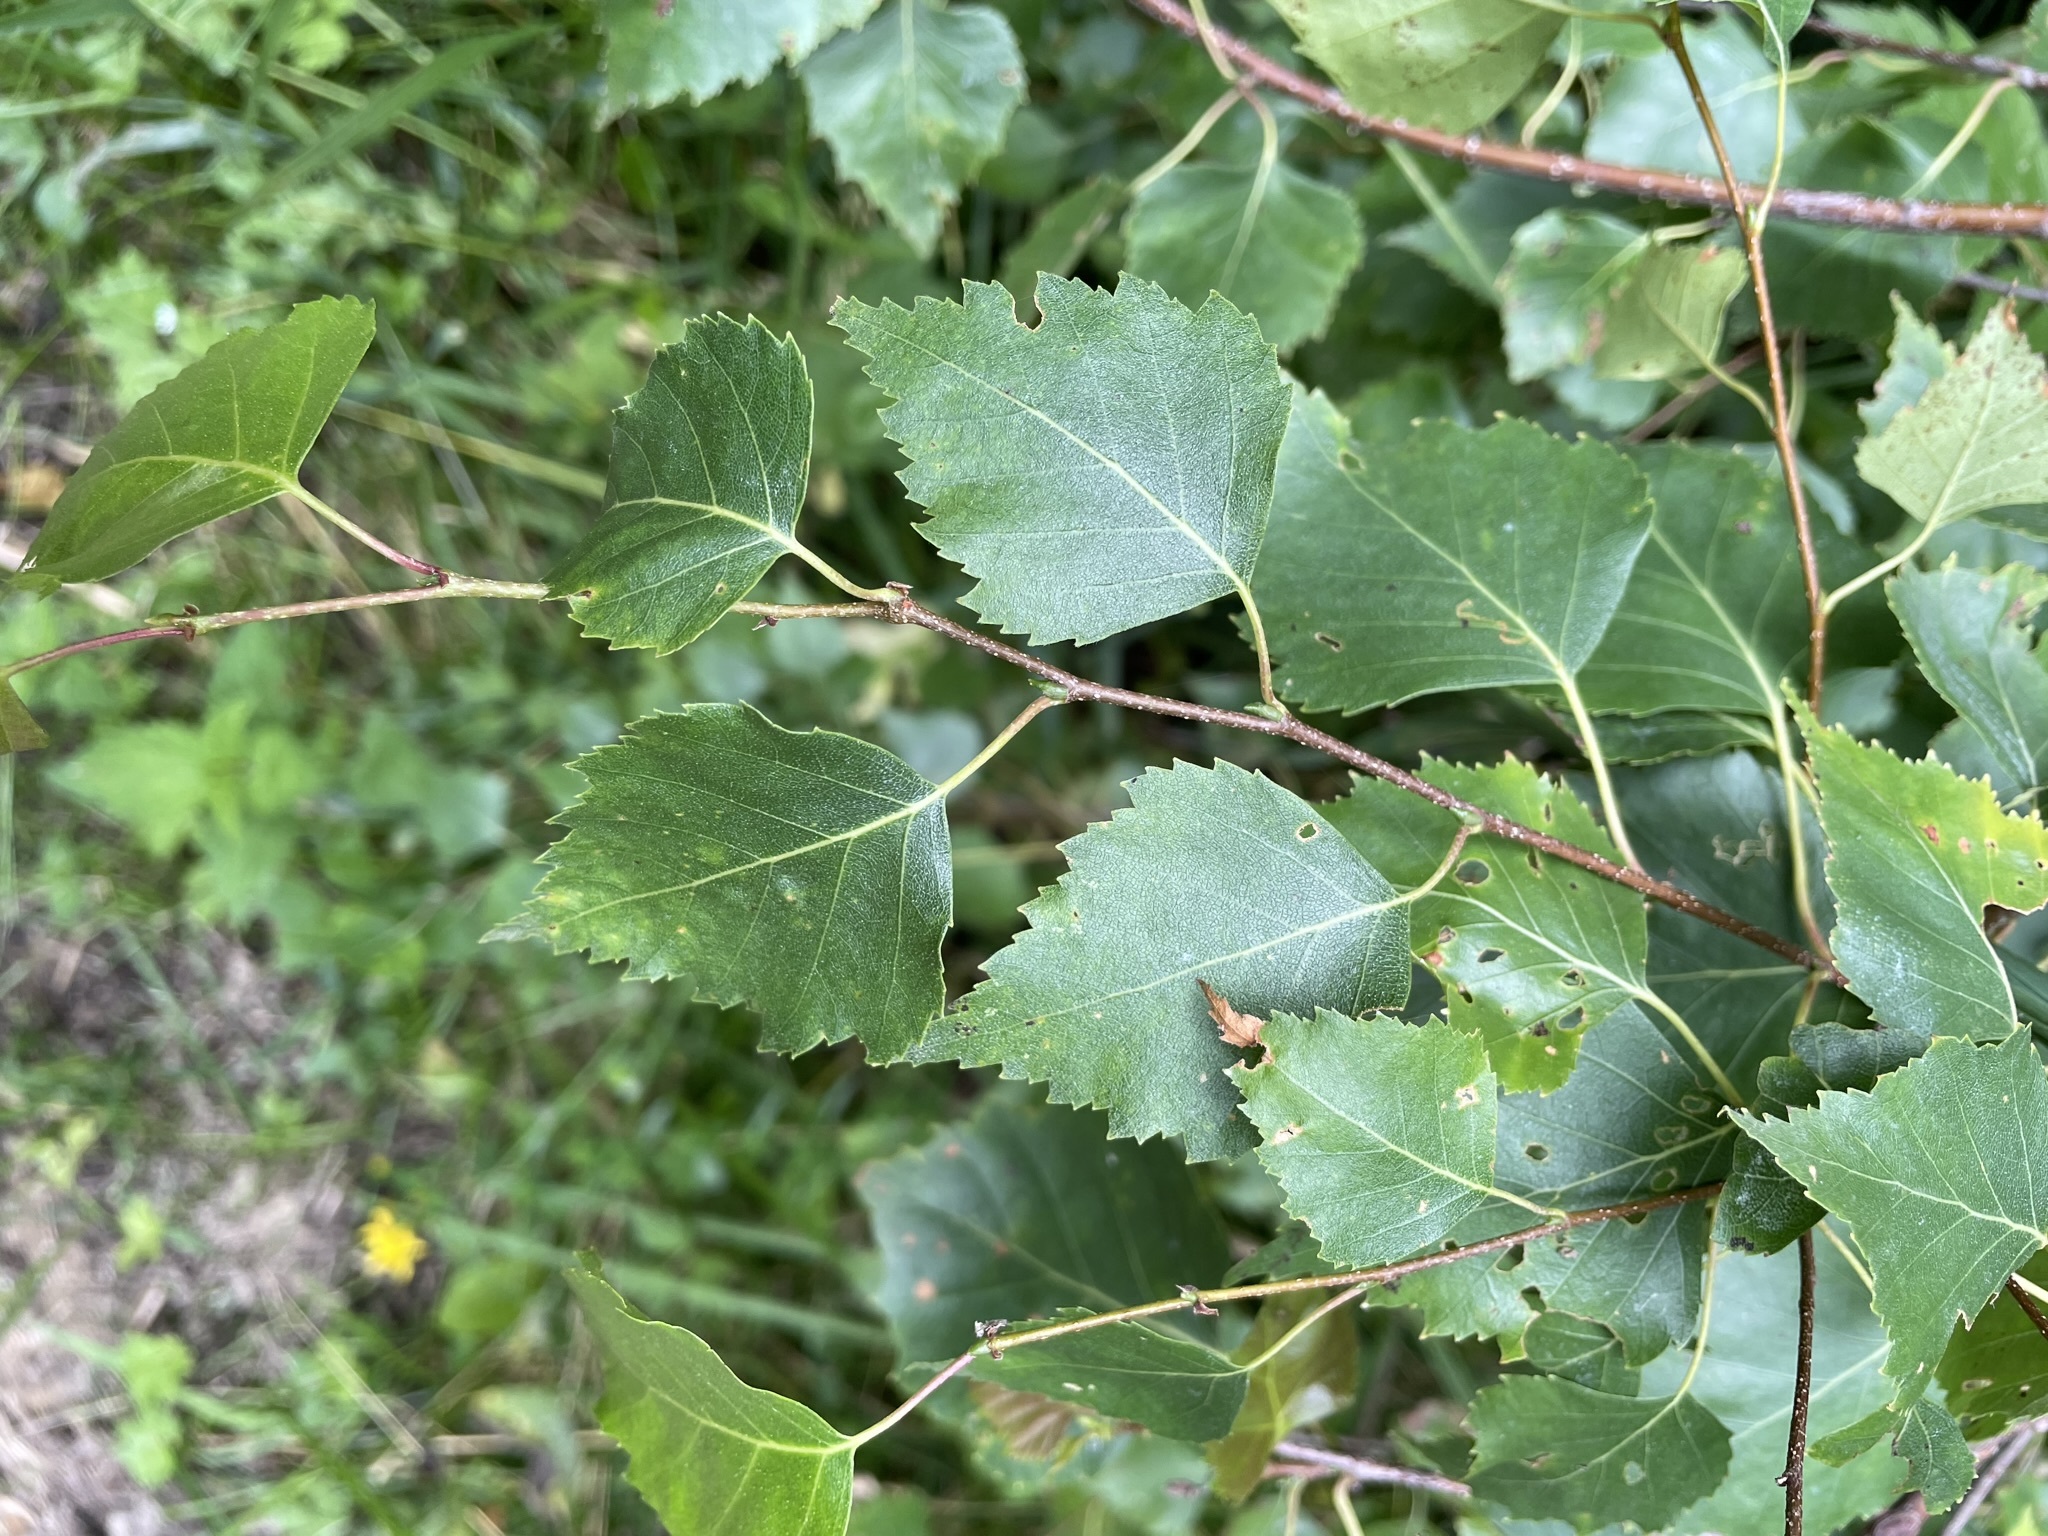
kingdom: Plantae
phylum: Tracheophyta
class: Magnoliopsida
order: Fagales
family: Betulaceae
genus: Betula
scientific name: Betula pendula
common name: Silver birch
